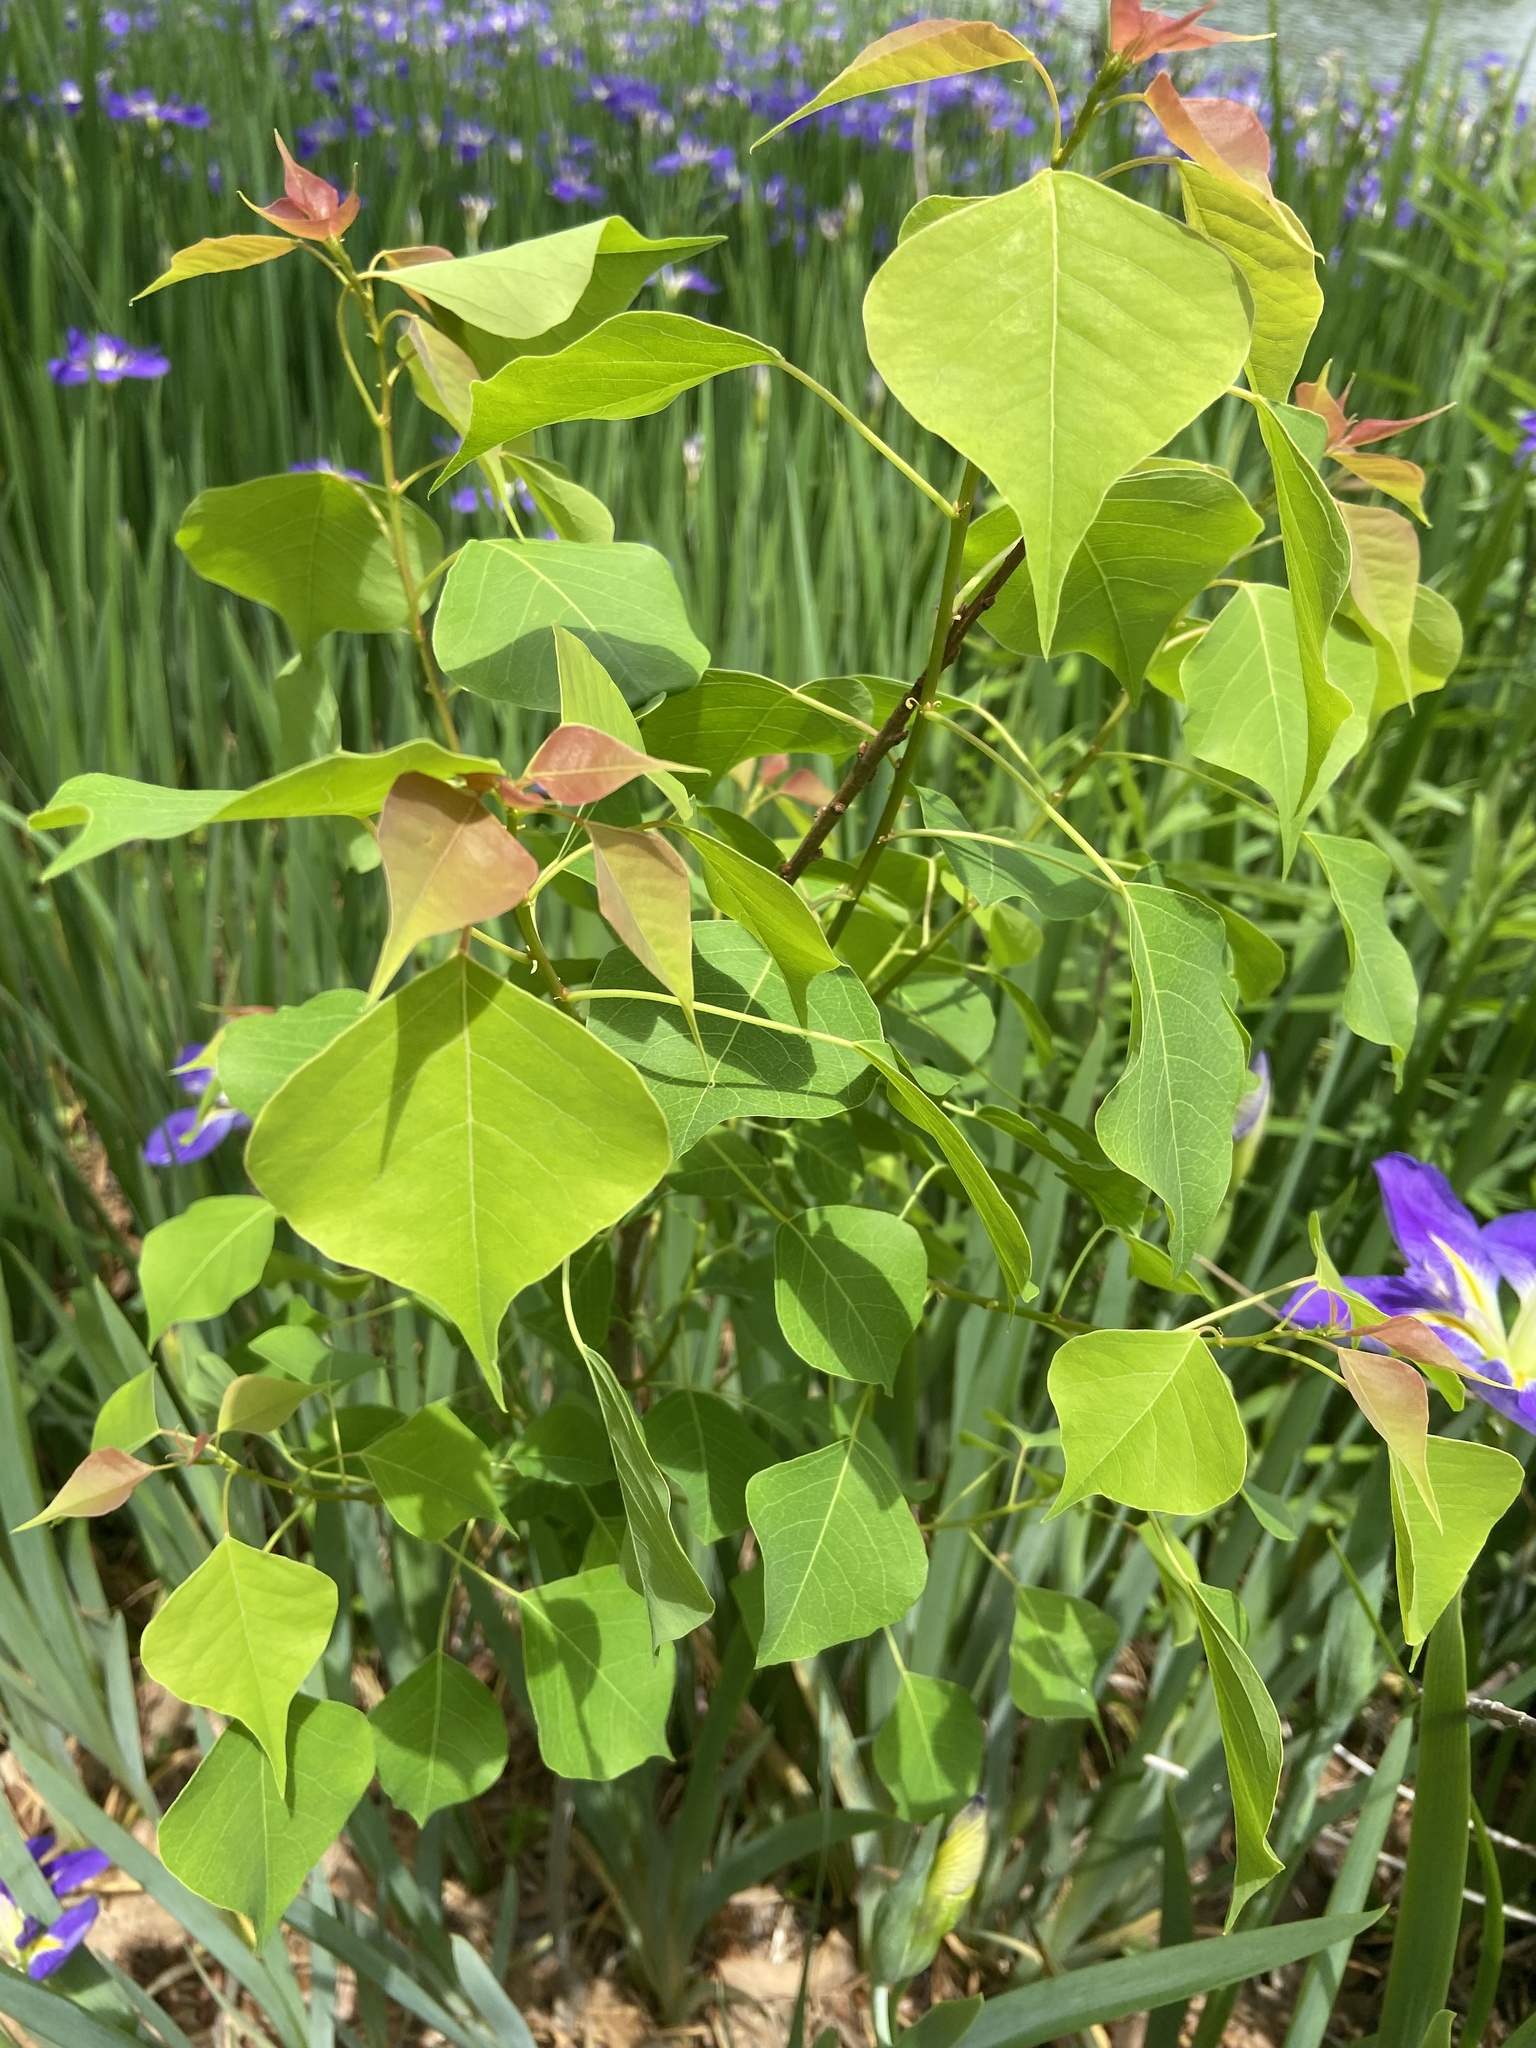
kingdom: Plantae
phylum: Tracheophyta
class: Magnoliopsida
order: Malpighiales
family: Euphorbiaceae
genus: Triadica
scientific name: Triadica sebifera
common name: Chinese tallow
